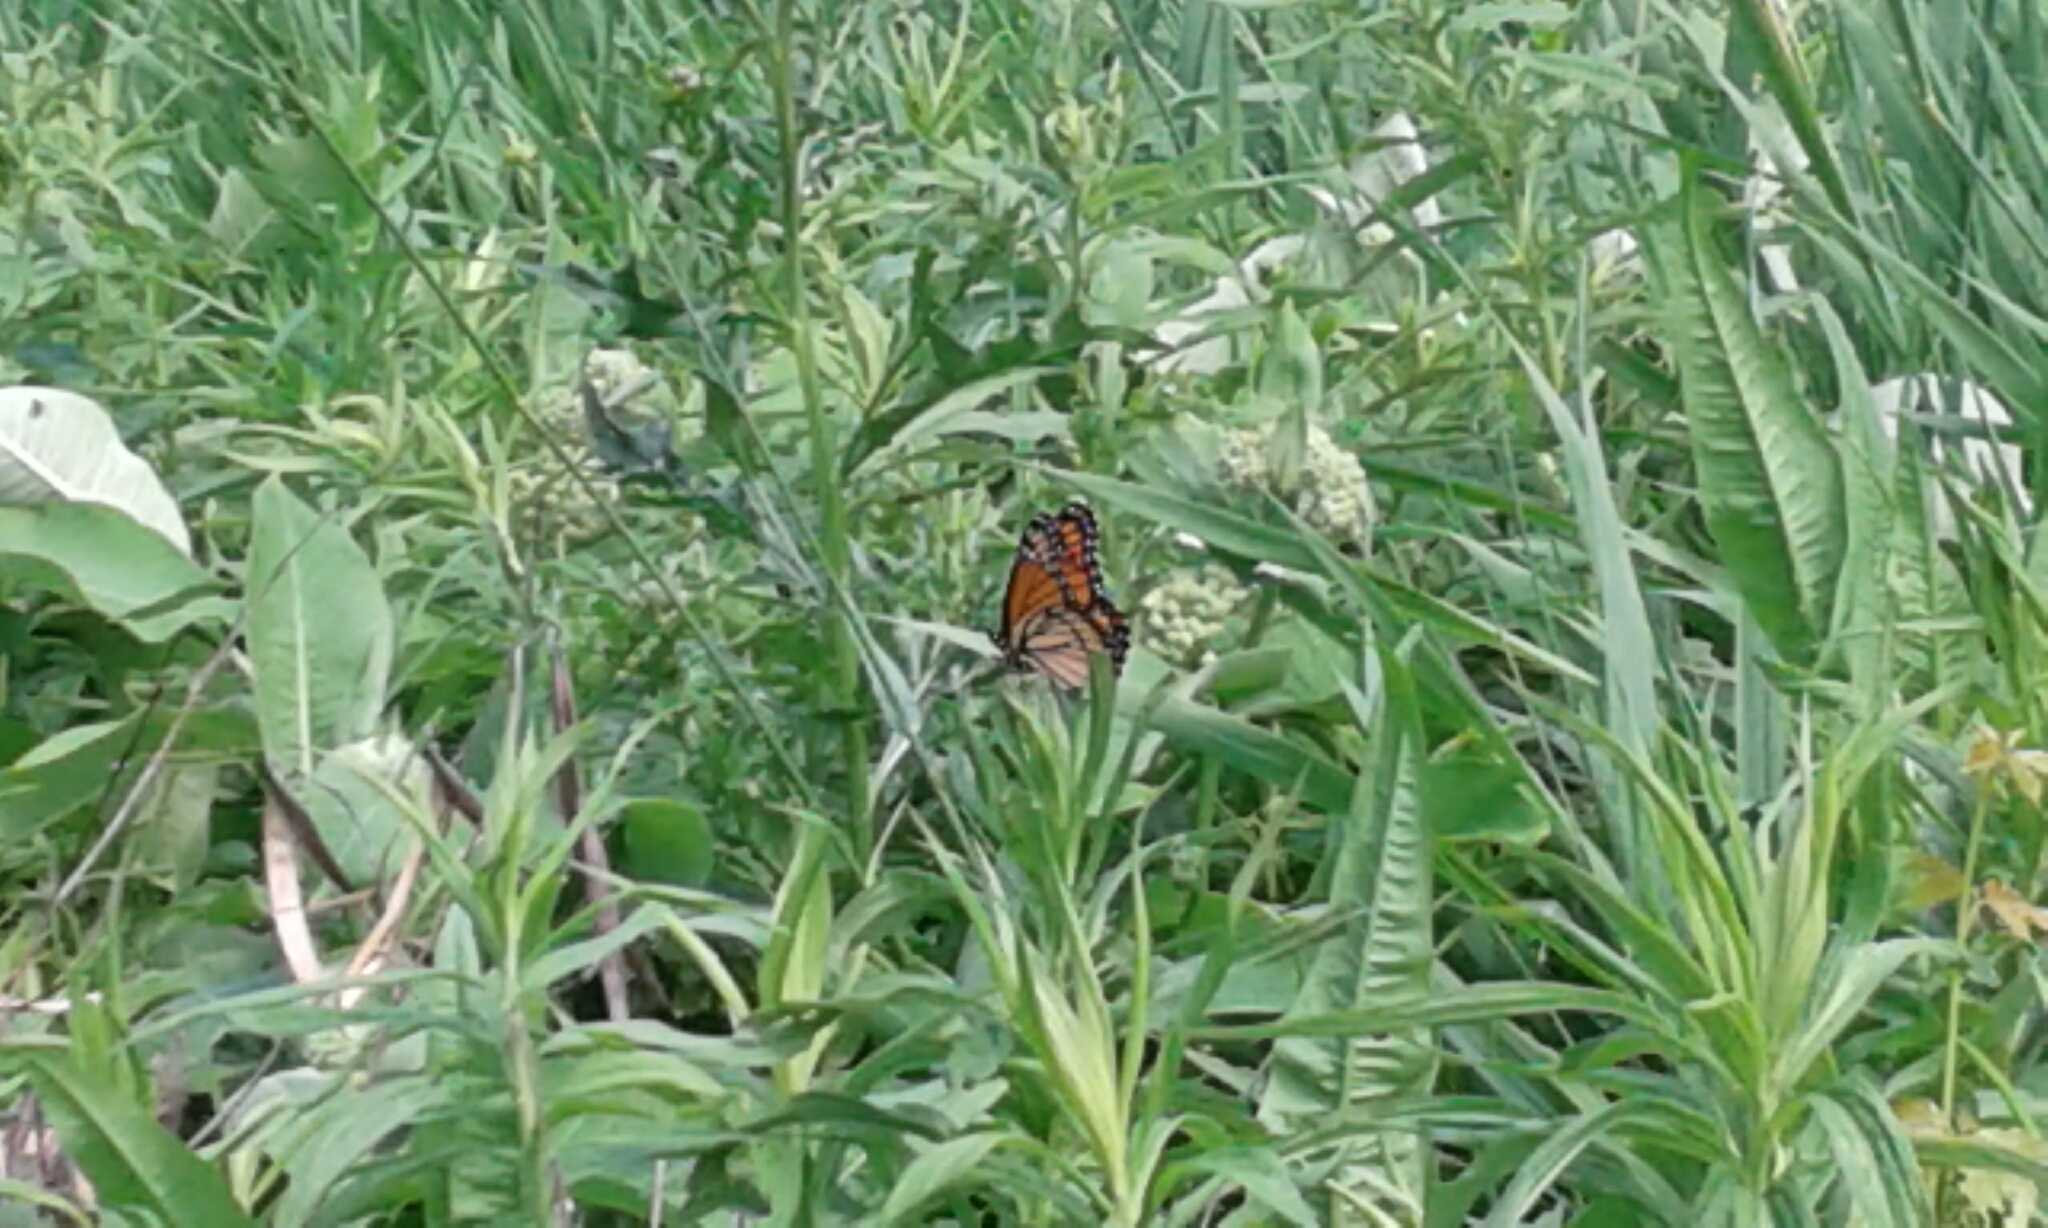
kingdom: Animalia
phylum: Arthropoda
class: Insecta
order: Lepidoptera
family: Nymphalidae
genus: Limenitis
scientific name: Limenitis archippus
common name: Viceroy
